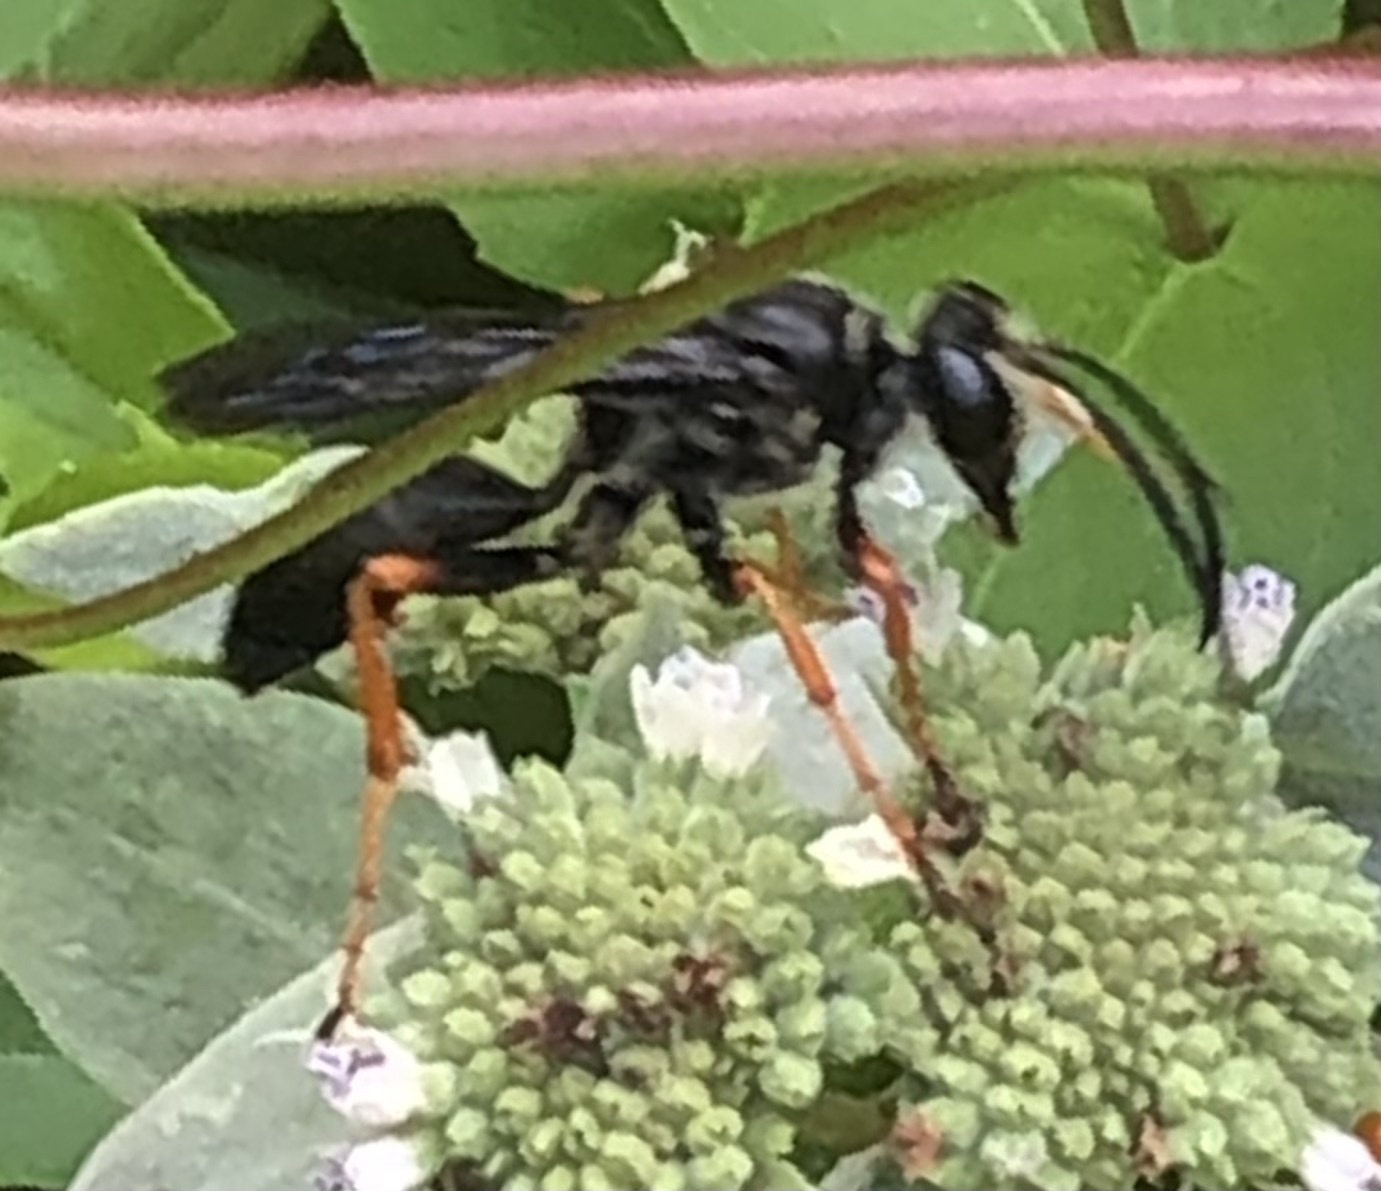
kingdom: Animalia
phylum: Arthropoda
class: Insecta
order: Hymenoptera
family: Sphecidae
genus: Sphex
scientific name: Sphex nudus
